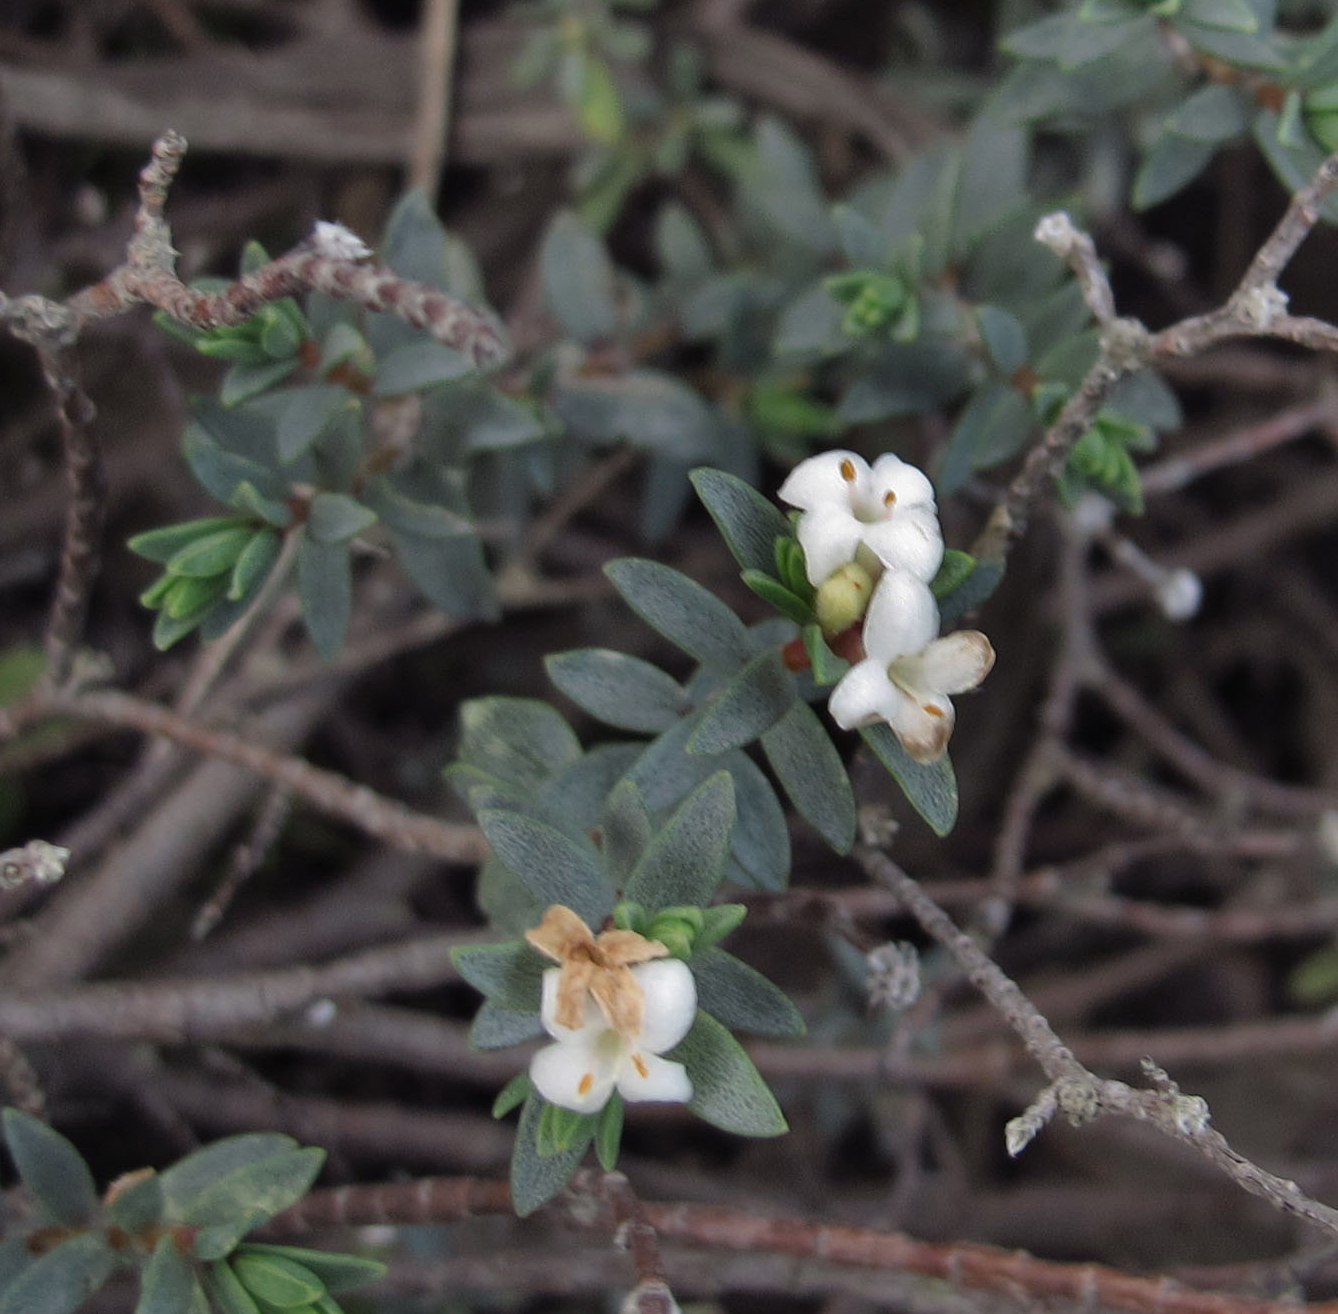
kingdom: Plantae
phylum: Tracheophyta
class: Magnoliopsida
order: Malvales
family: Thymelaeaceae
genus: Pimelea
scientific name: Pimelea prostrata
